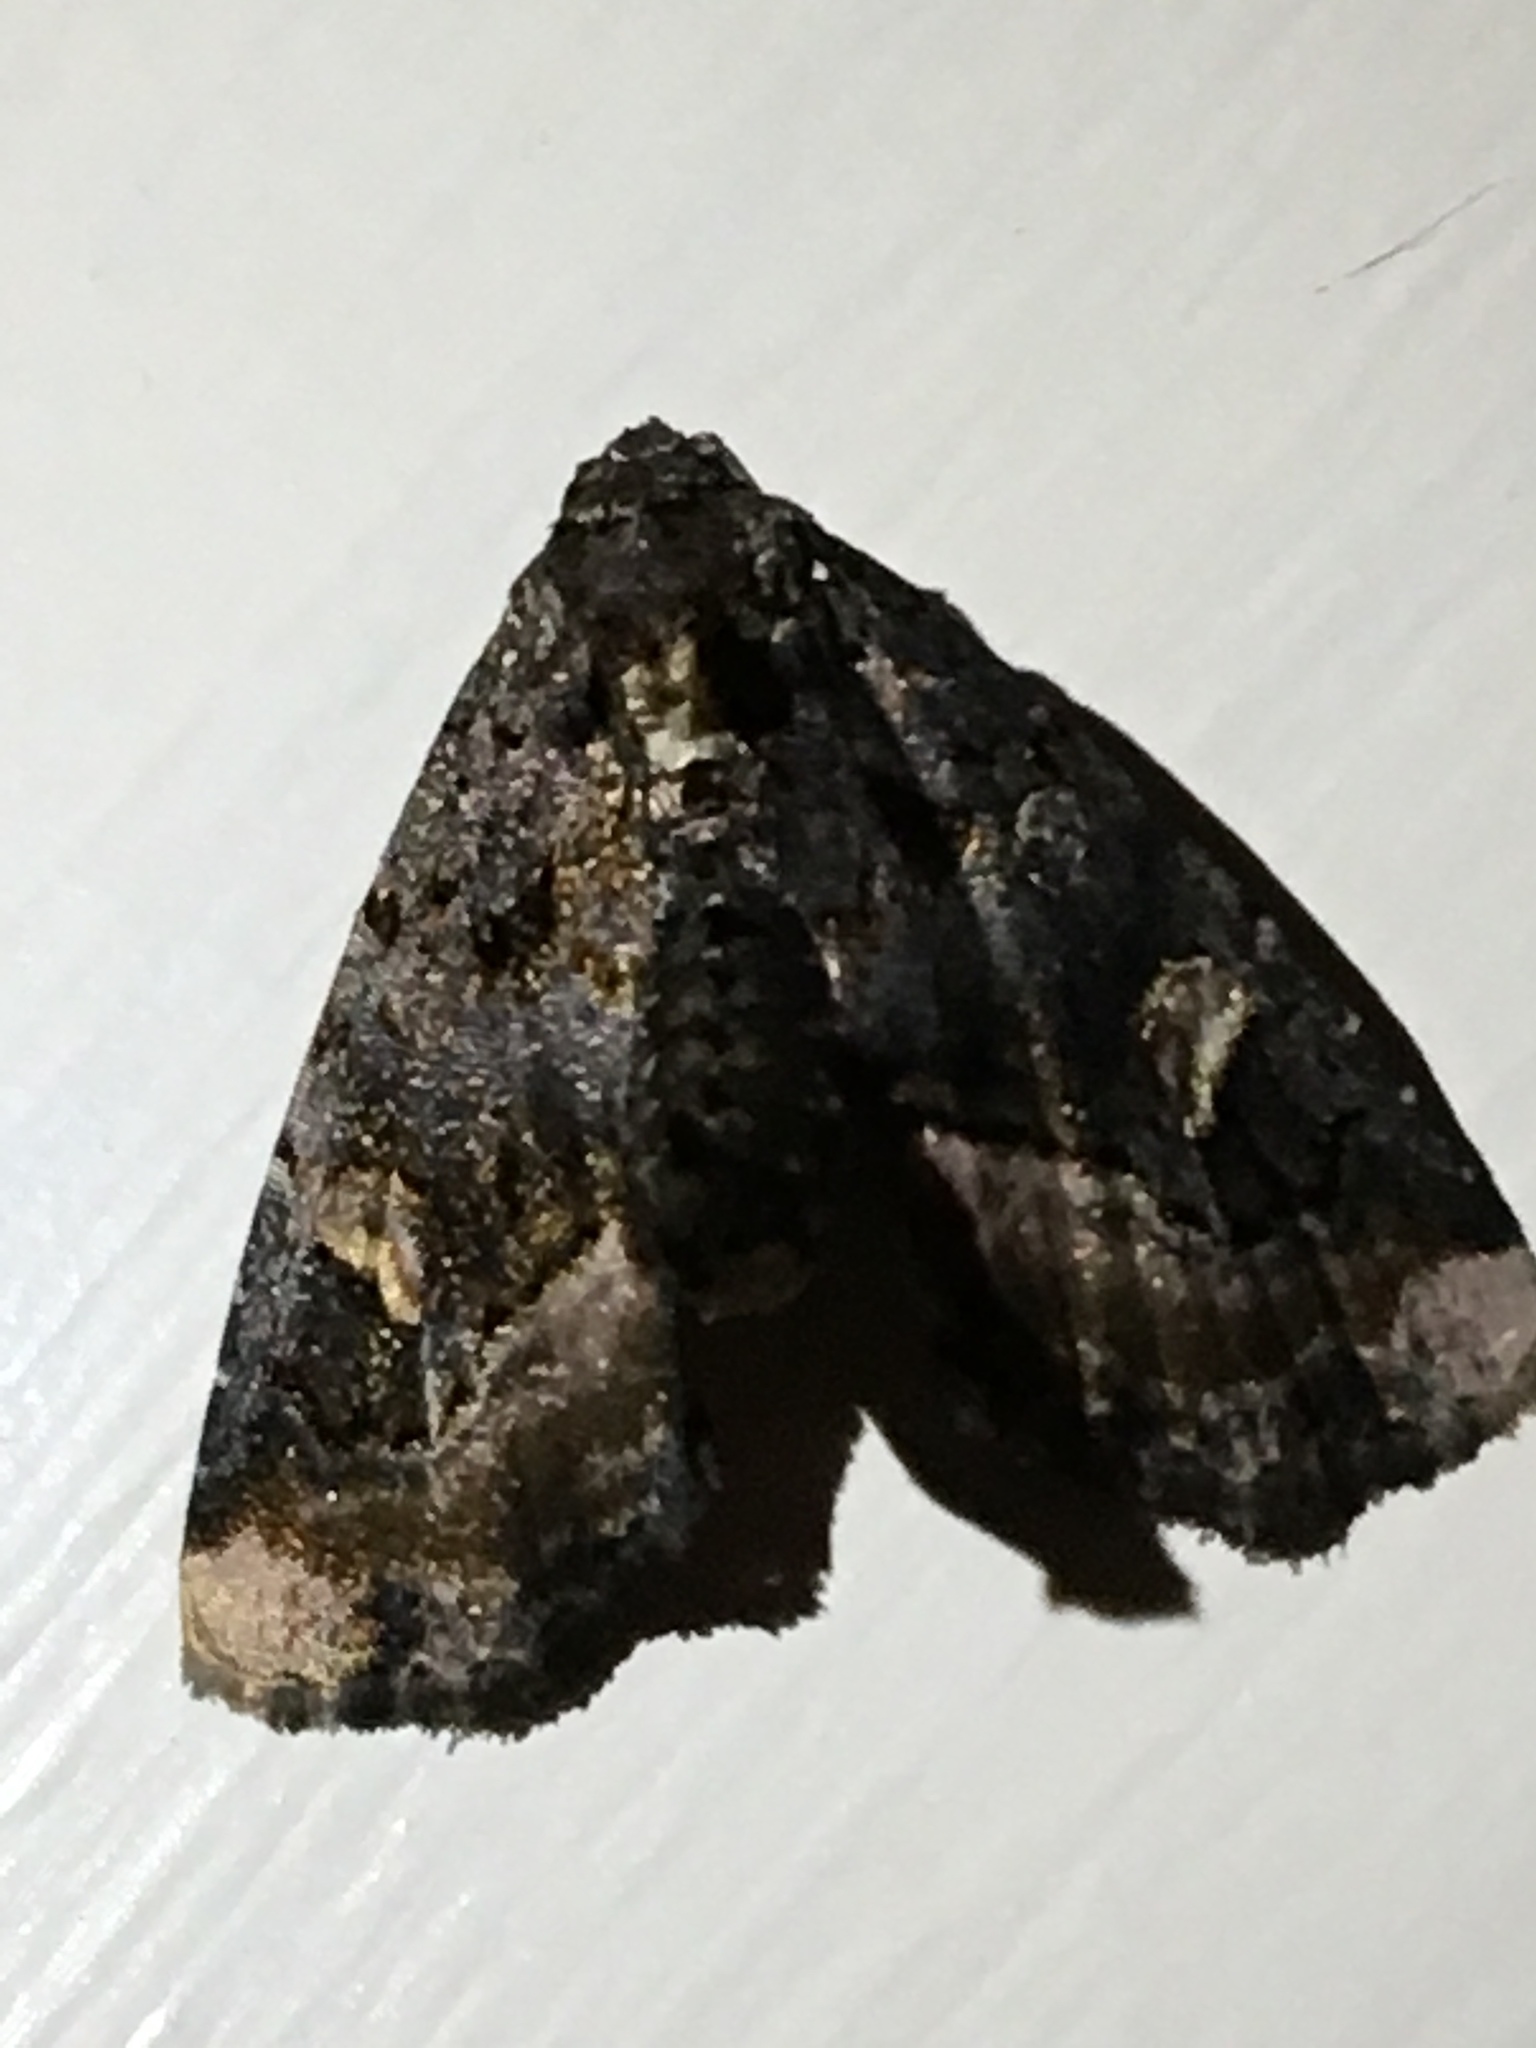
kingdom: Animalia
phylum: Arthropoda
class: Insecta
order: Lepidoptera
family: Noctuidae
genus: Homophoberia
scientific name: Homophoberia apicosa
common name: Black wedge-spot
